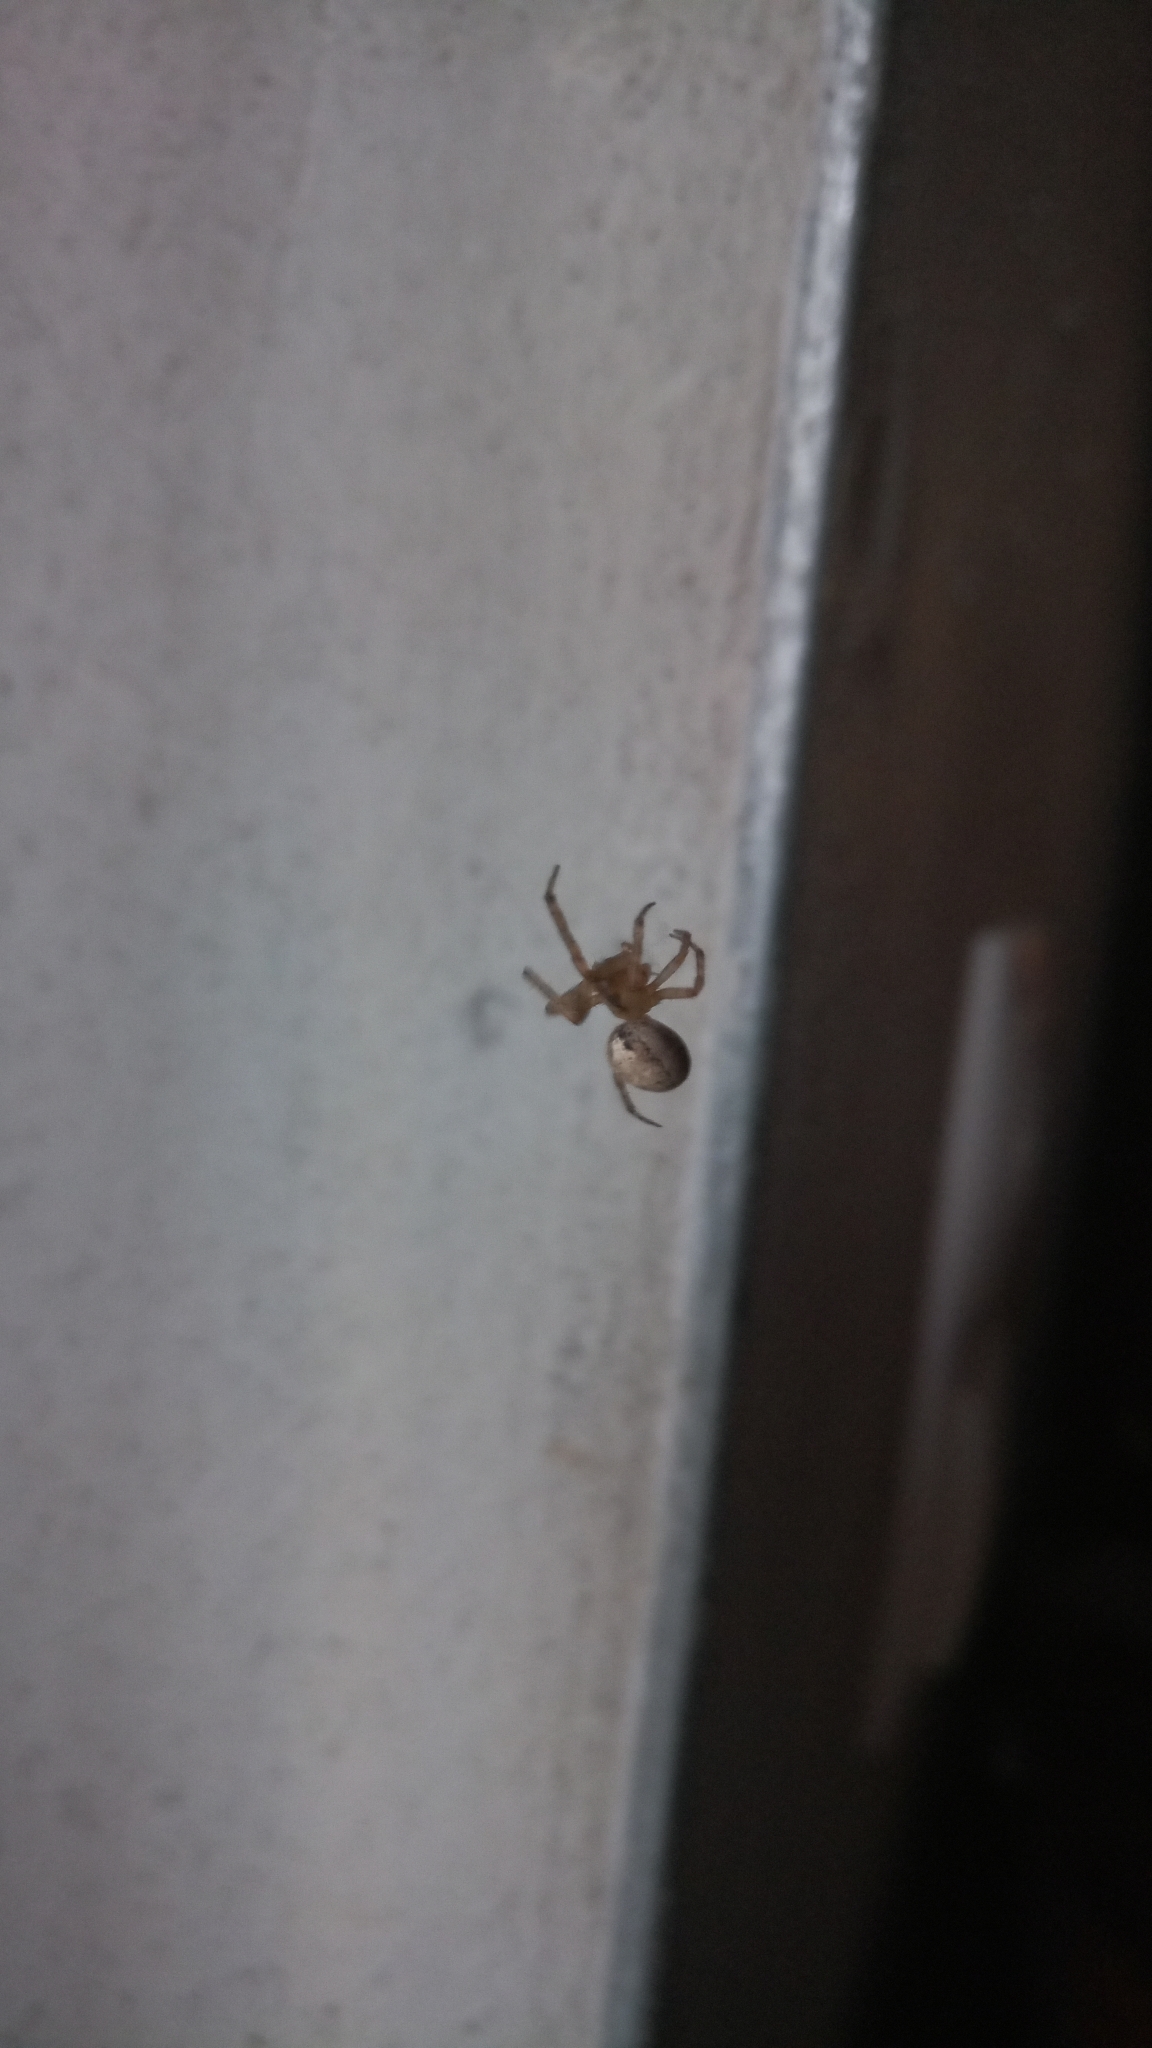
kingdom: Animalia
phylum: Arthropoda
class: Arachnida
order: Araneae
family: Araneidae
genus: Zygiella
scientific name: Zygiella x-notata
